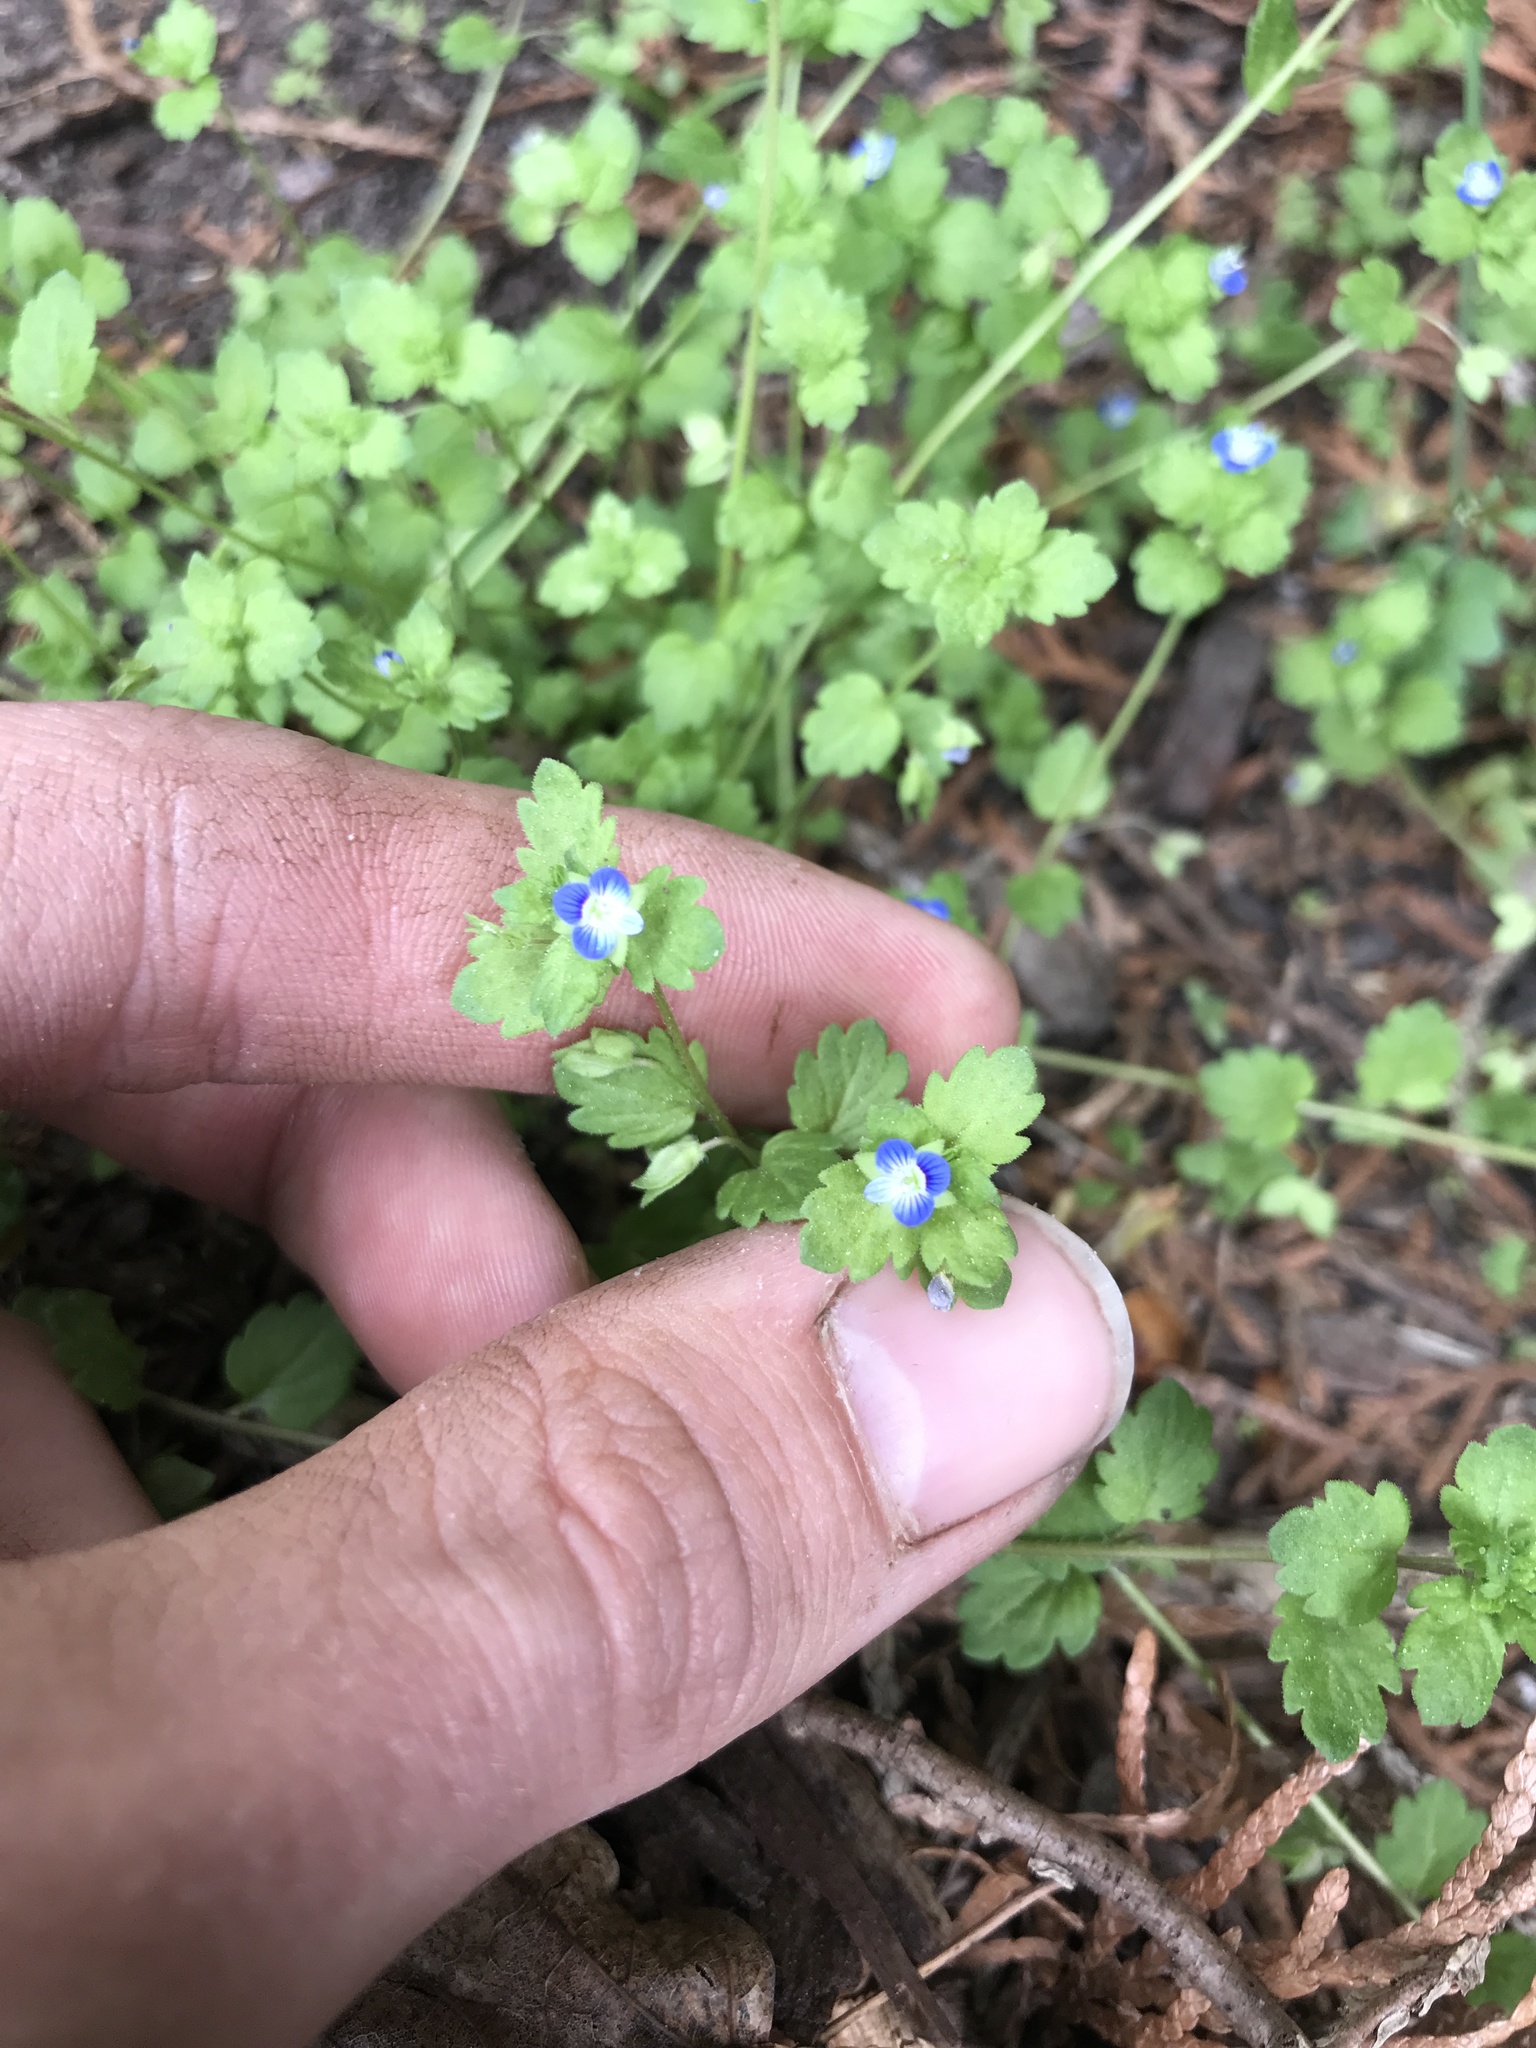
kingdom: Plantae
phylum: Tracheophyta
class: Magnoliopsida
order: Lamiales
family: Plantaginaceae
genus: Veronica
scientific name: Veronica polita
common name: Grey field-speedwell
